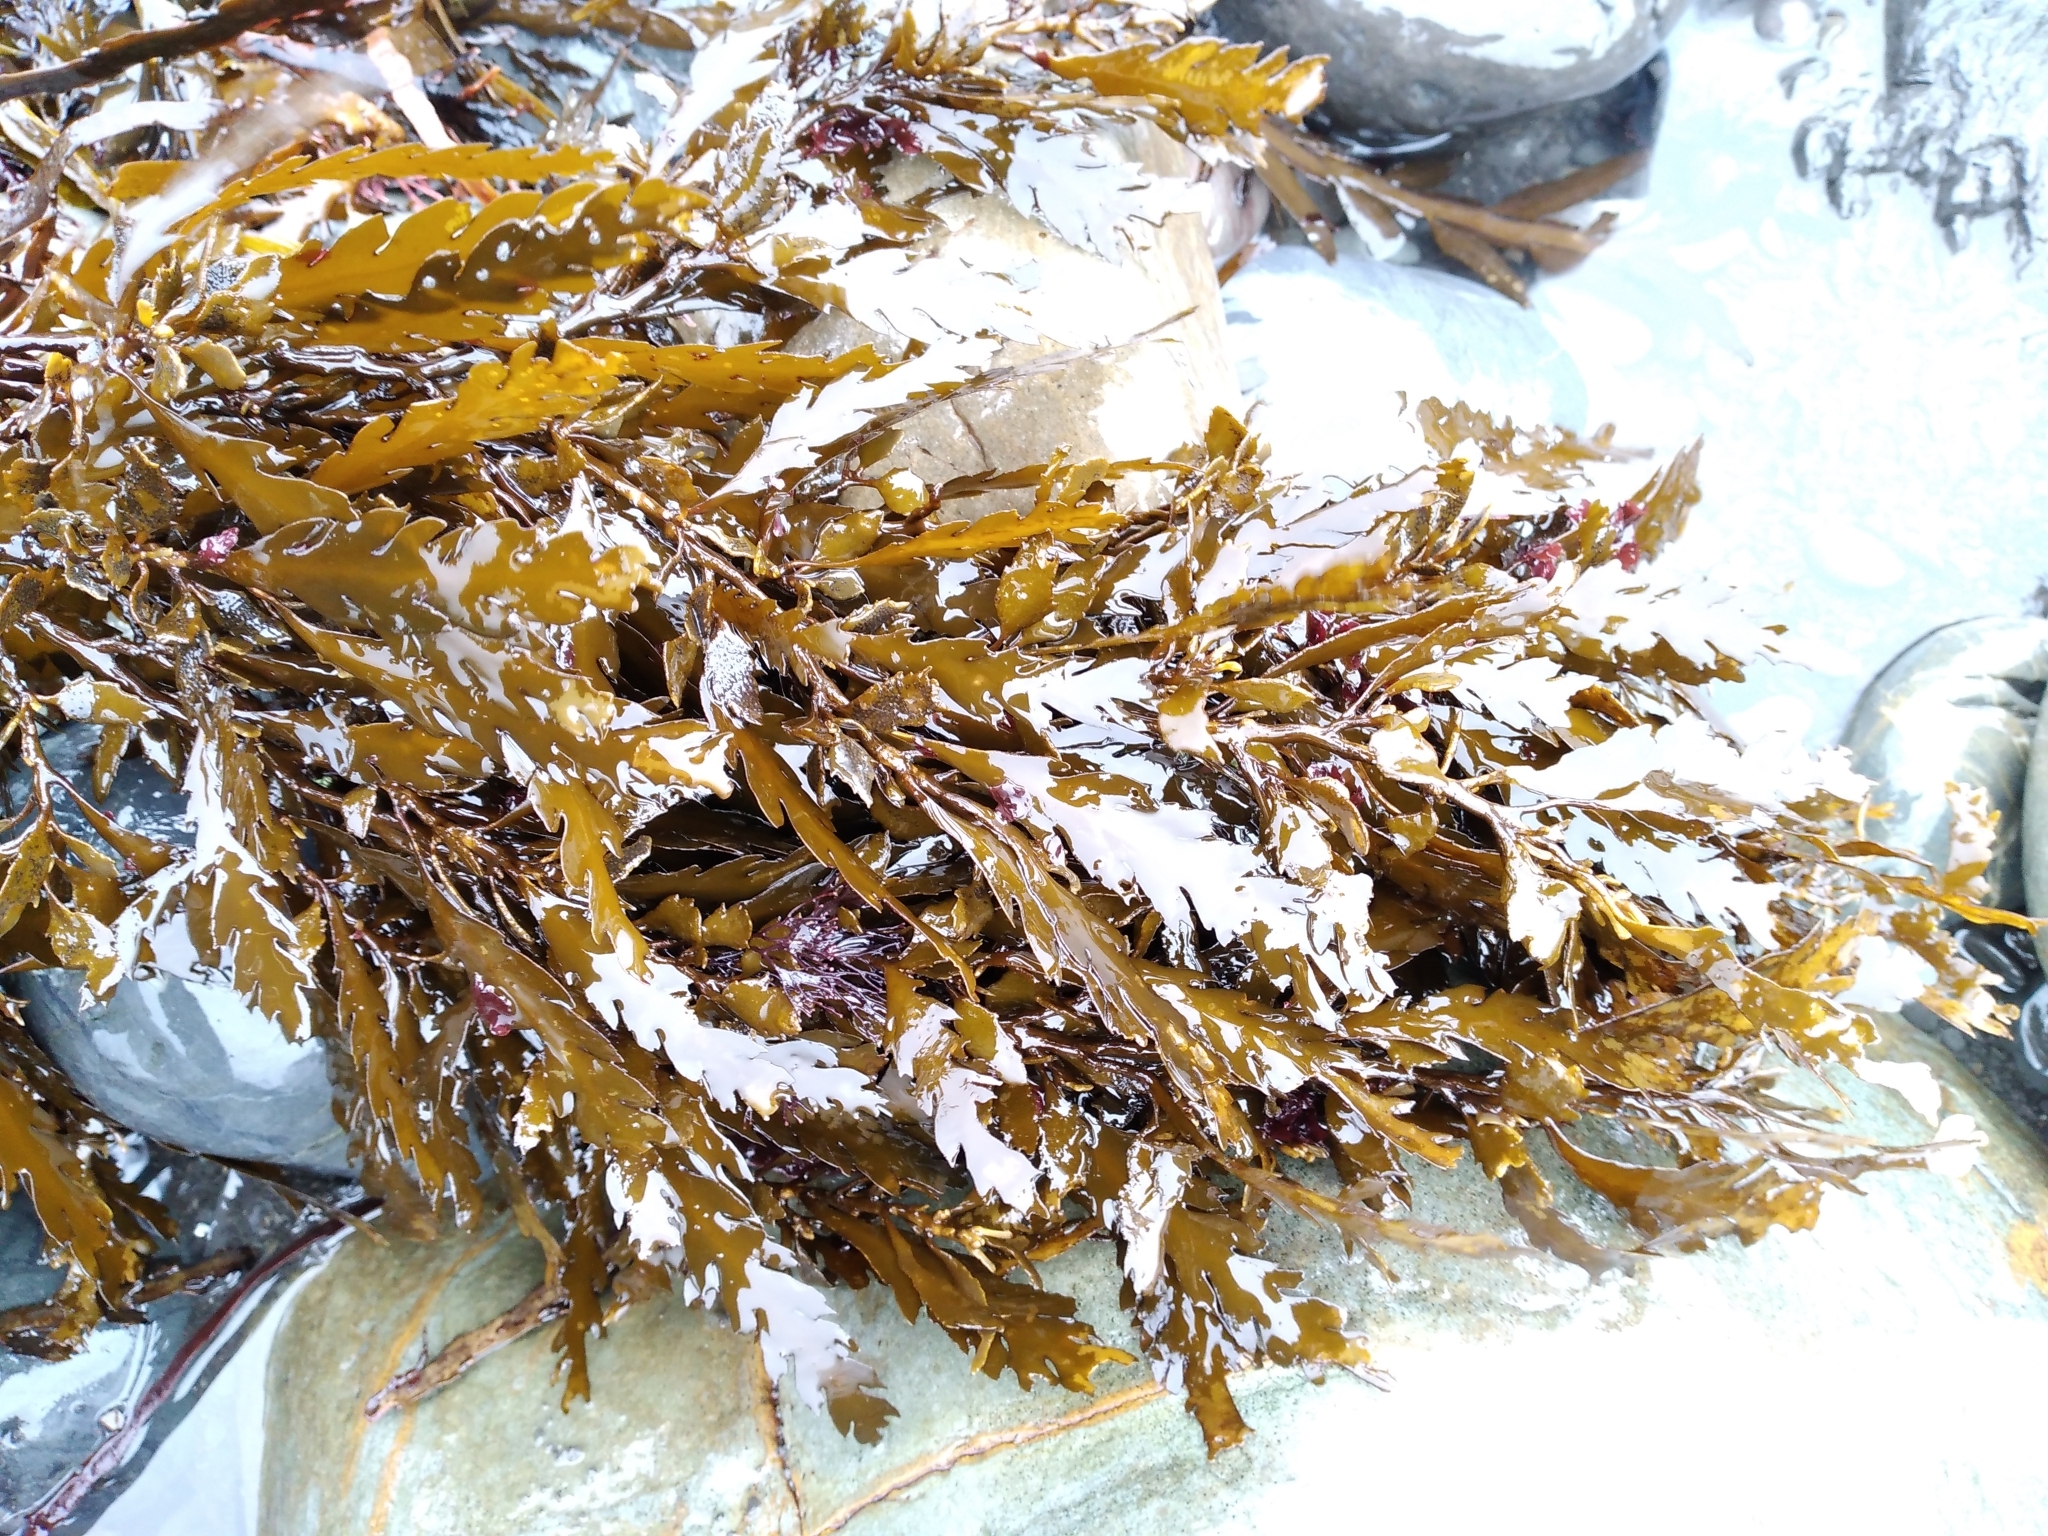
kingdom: Chromista
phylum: Ochrophyta
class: Phaeophyceae
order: Fucales
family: Sargassaceae
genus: Landsburgia
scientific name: Landsburgia quercifolia
